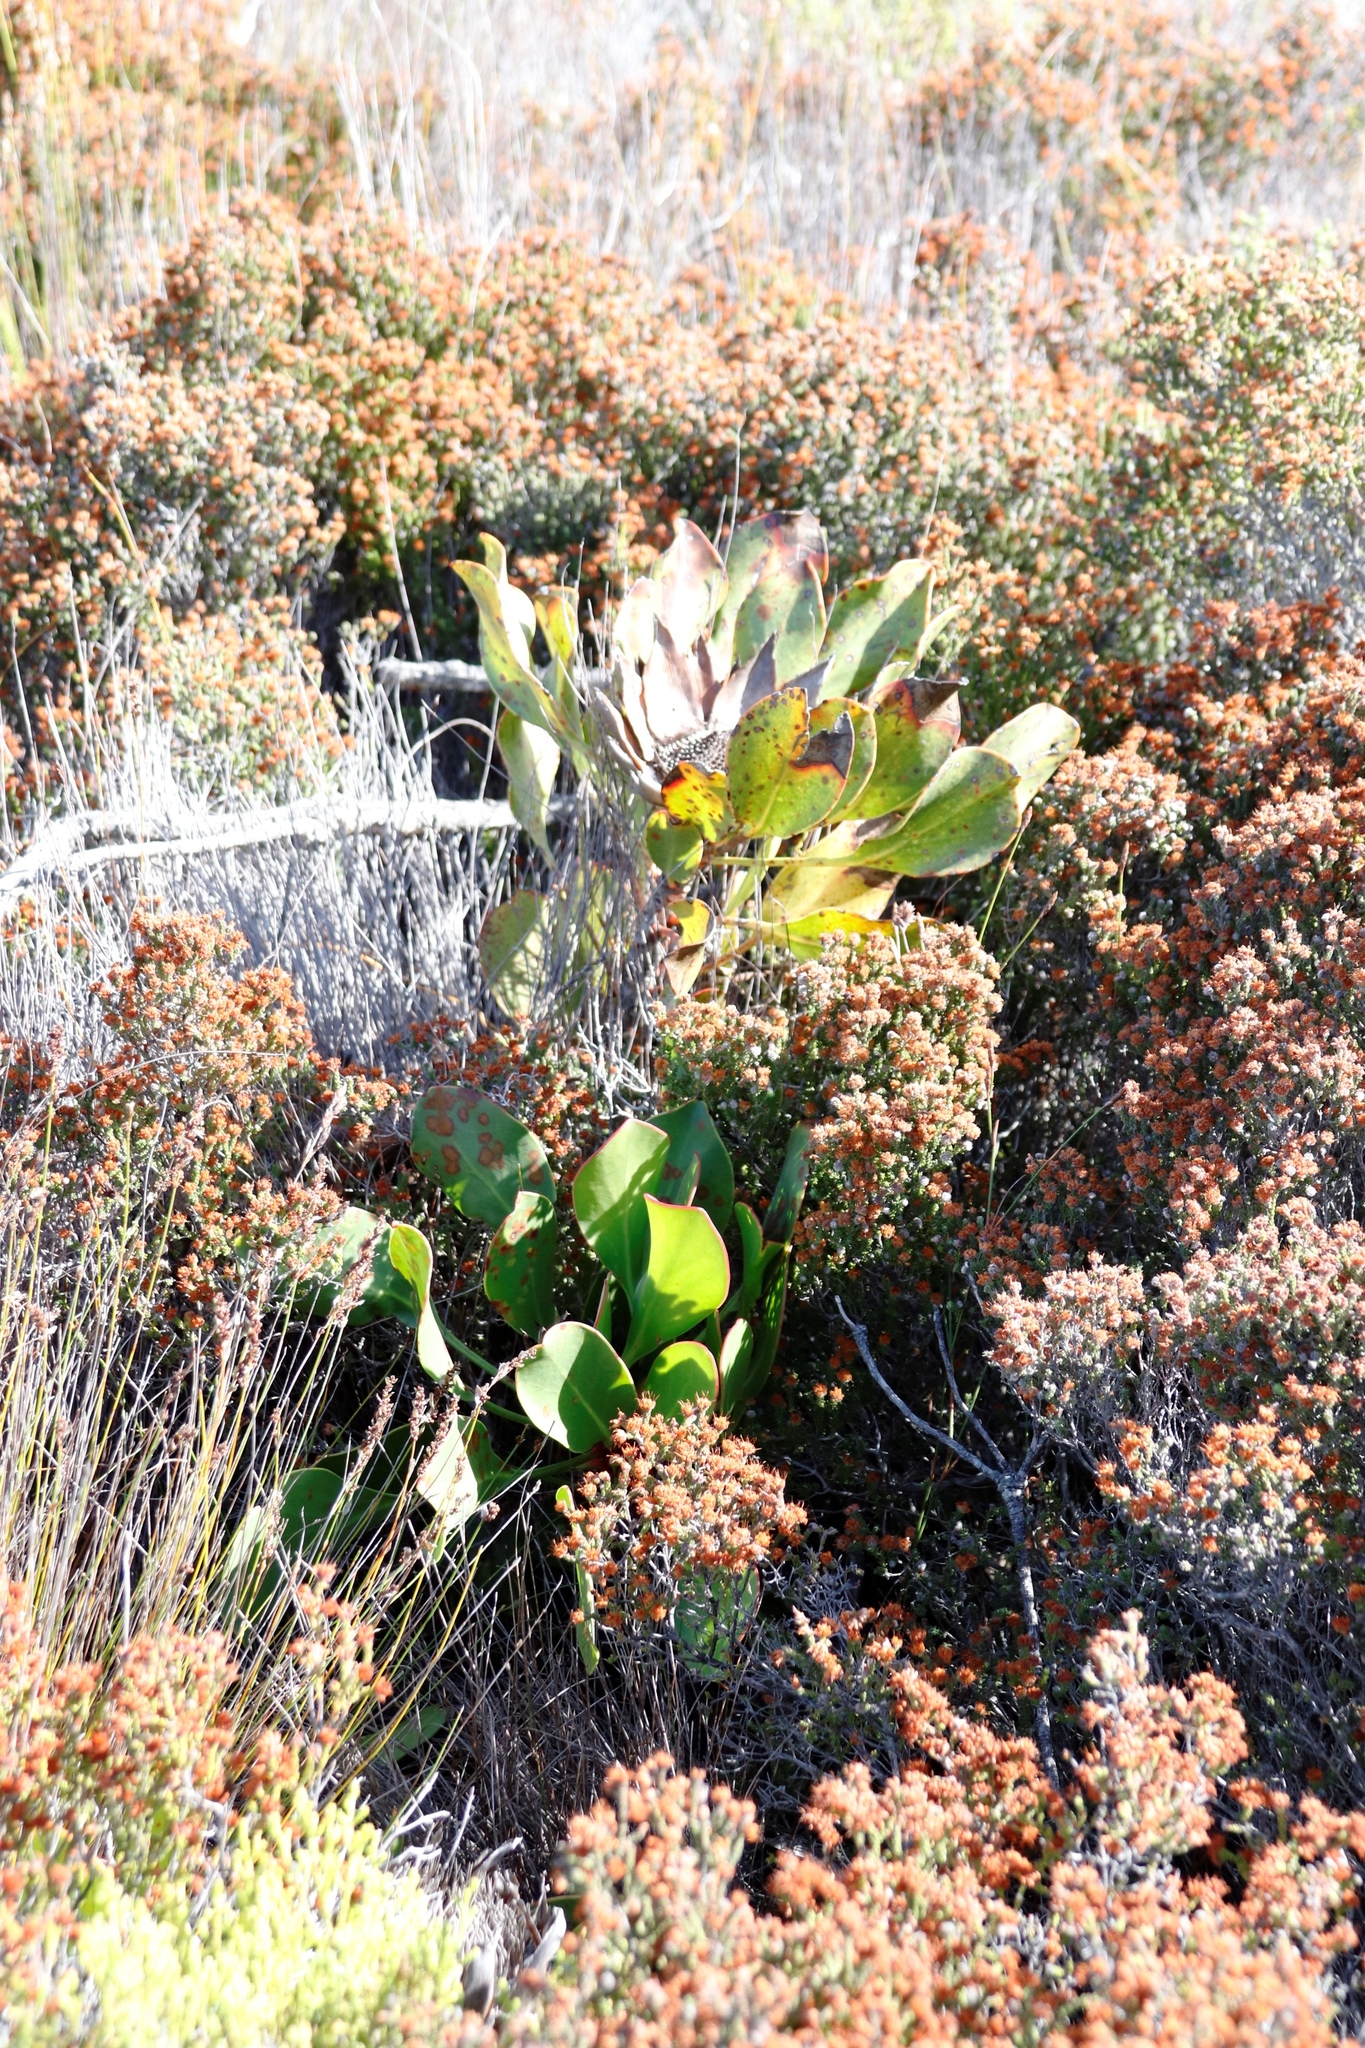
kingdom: Plantae
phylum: Tracheophyta
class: Magnoliopsida
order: Proteales
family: Proteaceae
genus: Protea
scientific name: Protea cynaroides
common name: King protea
